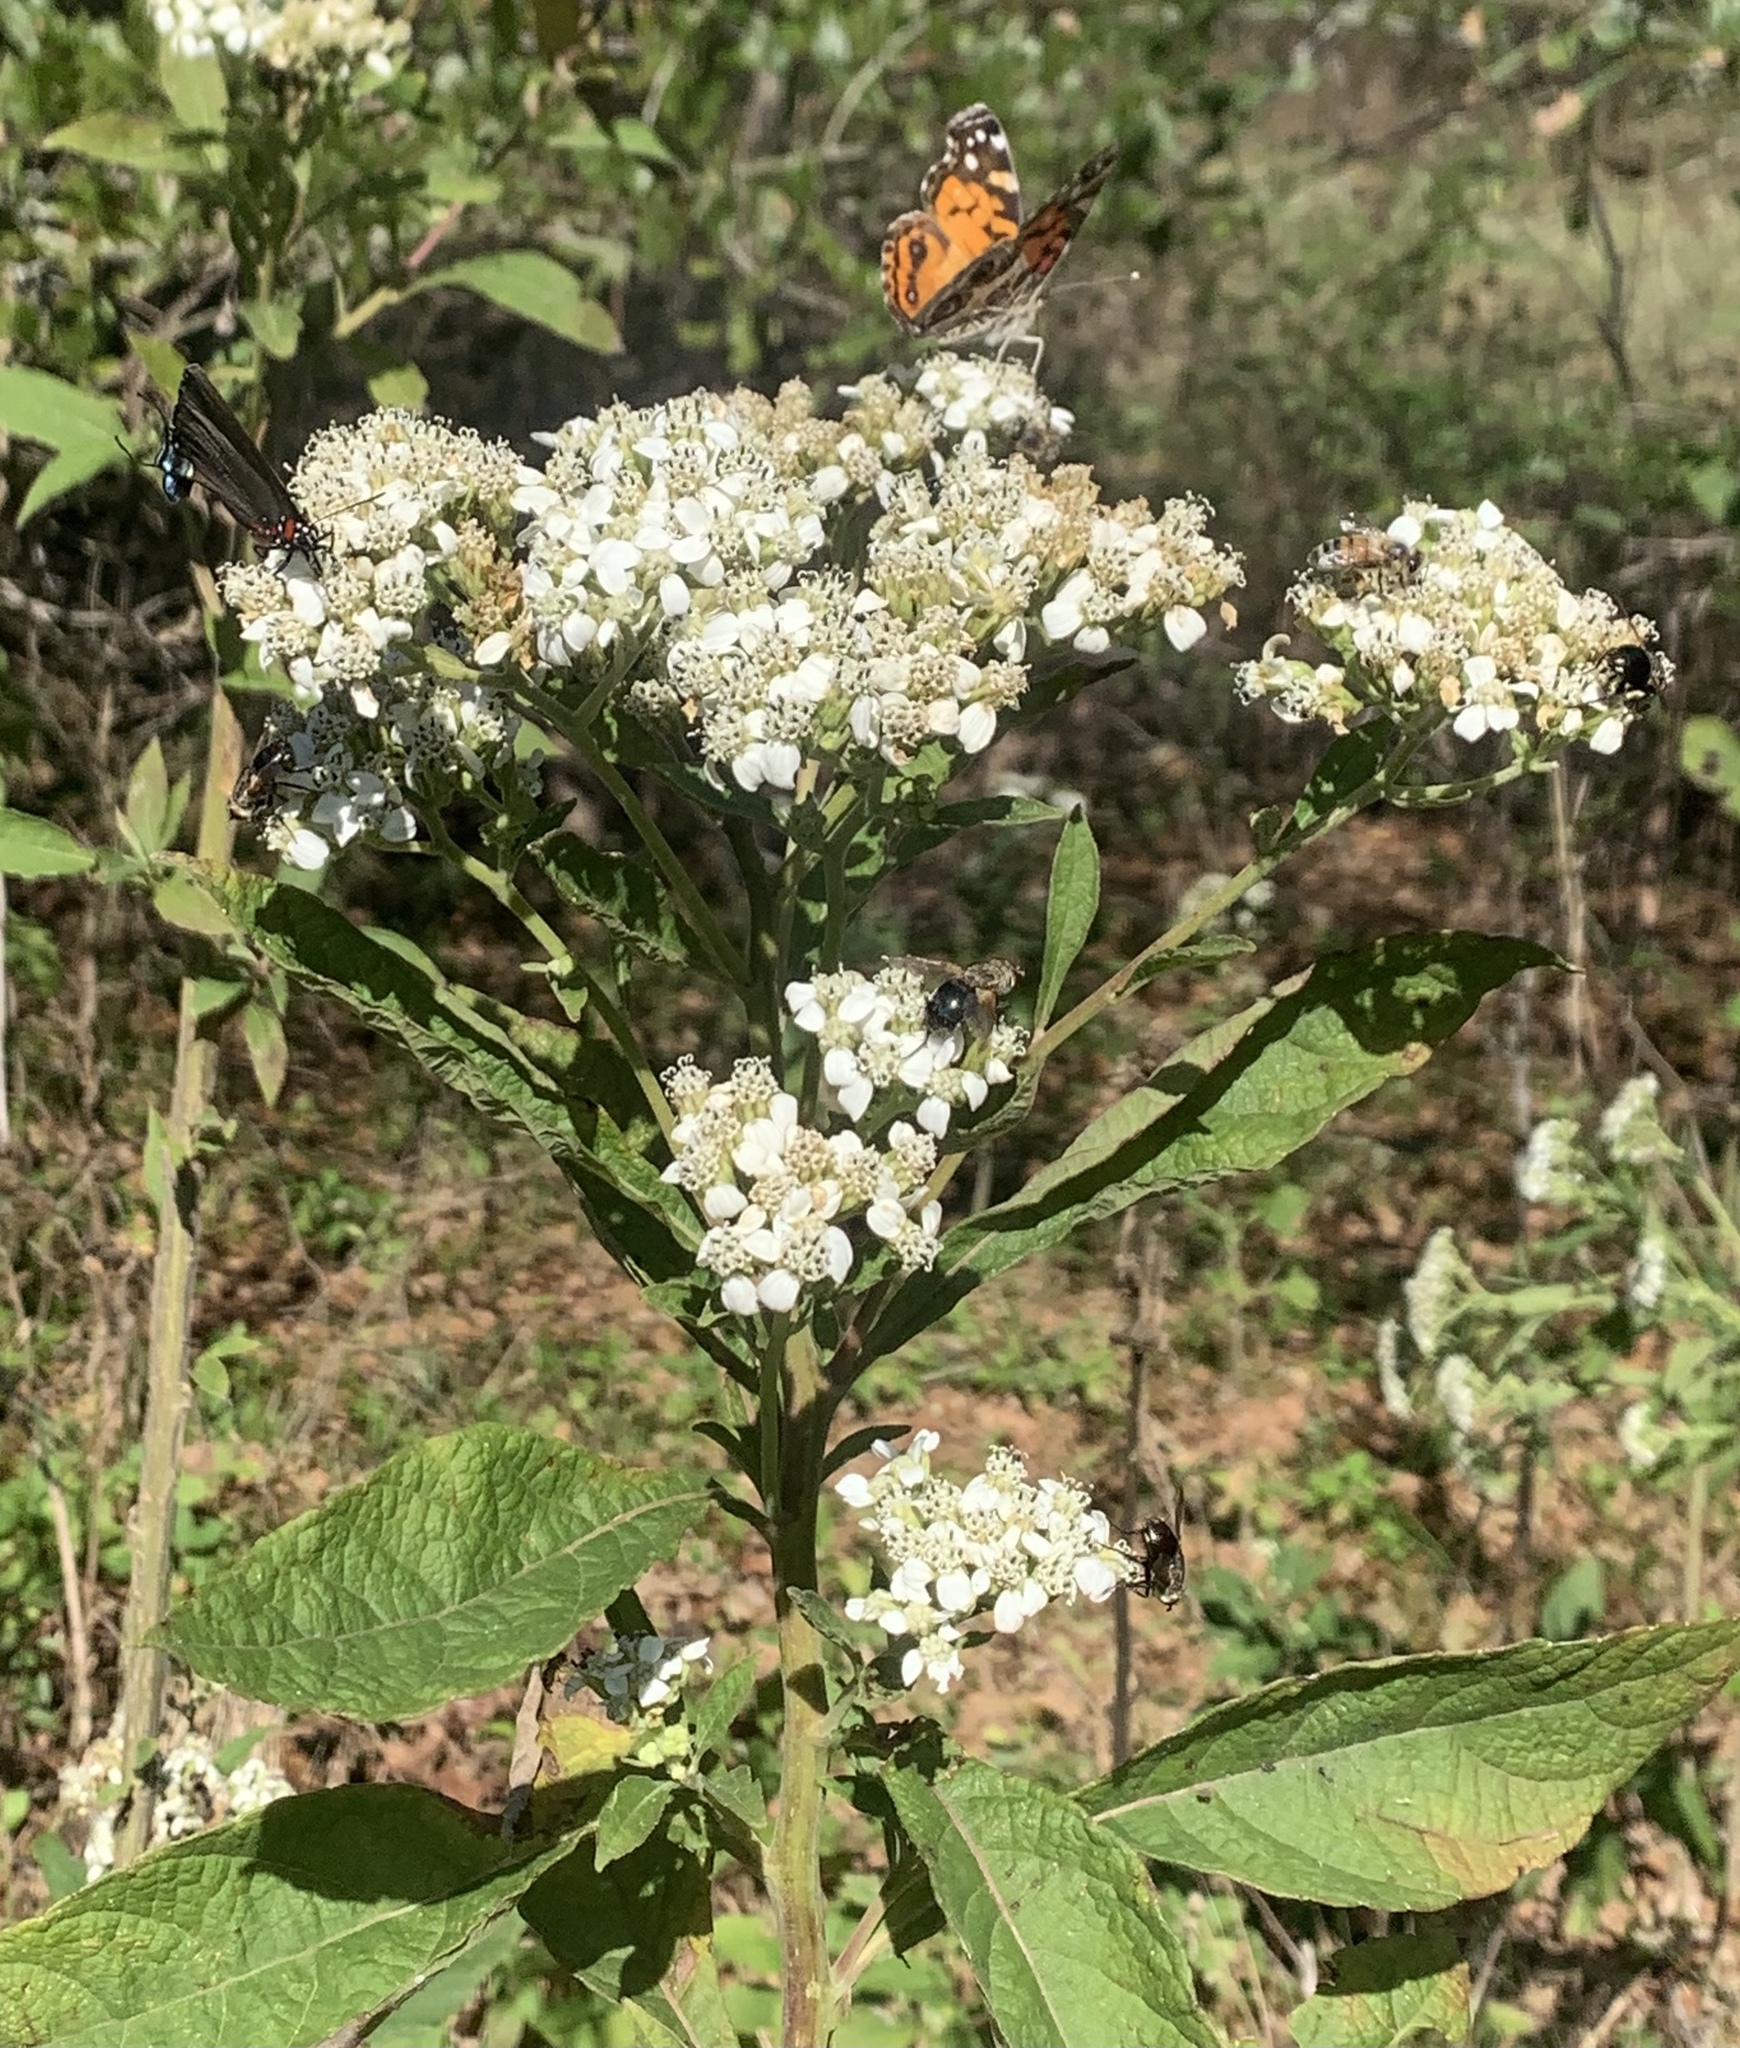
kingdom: Plantae
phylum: Tracheophyta
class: Magnoliopsida
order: Asterales
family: Asteraceae
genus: Verbesina
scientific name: Verbesina virginica
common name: Frostweed
